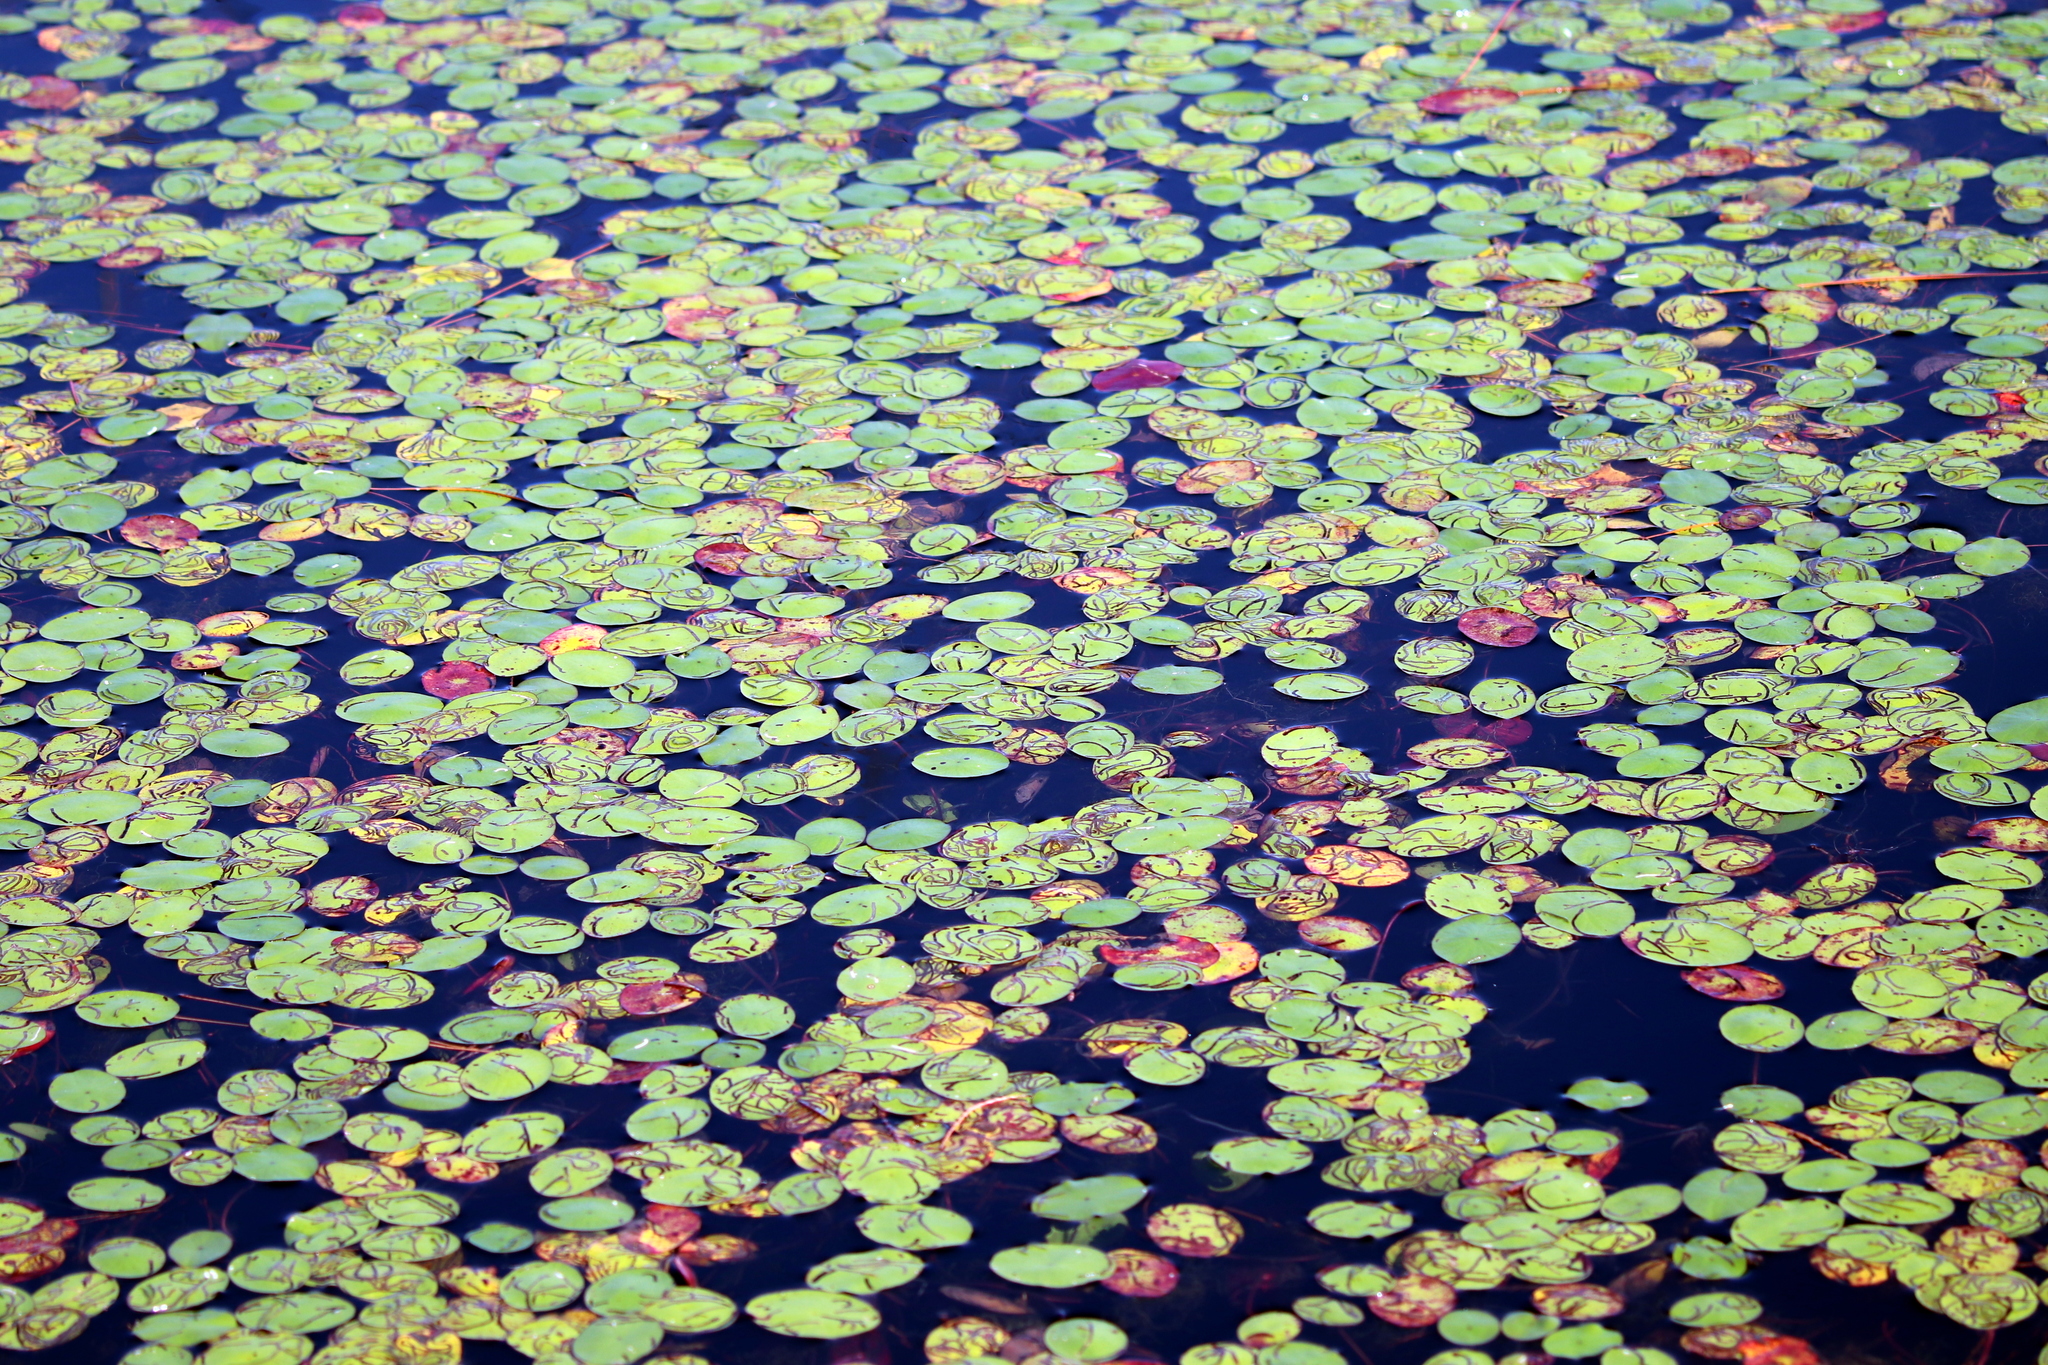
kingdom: Plantae
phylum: Tracheophyta
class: Magnoliopsida
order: Nymphaeales
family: Cabombaceae
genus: Brasenia
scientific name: Brasenia schreberi
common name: Water-shield
